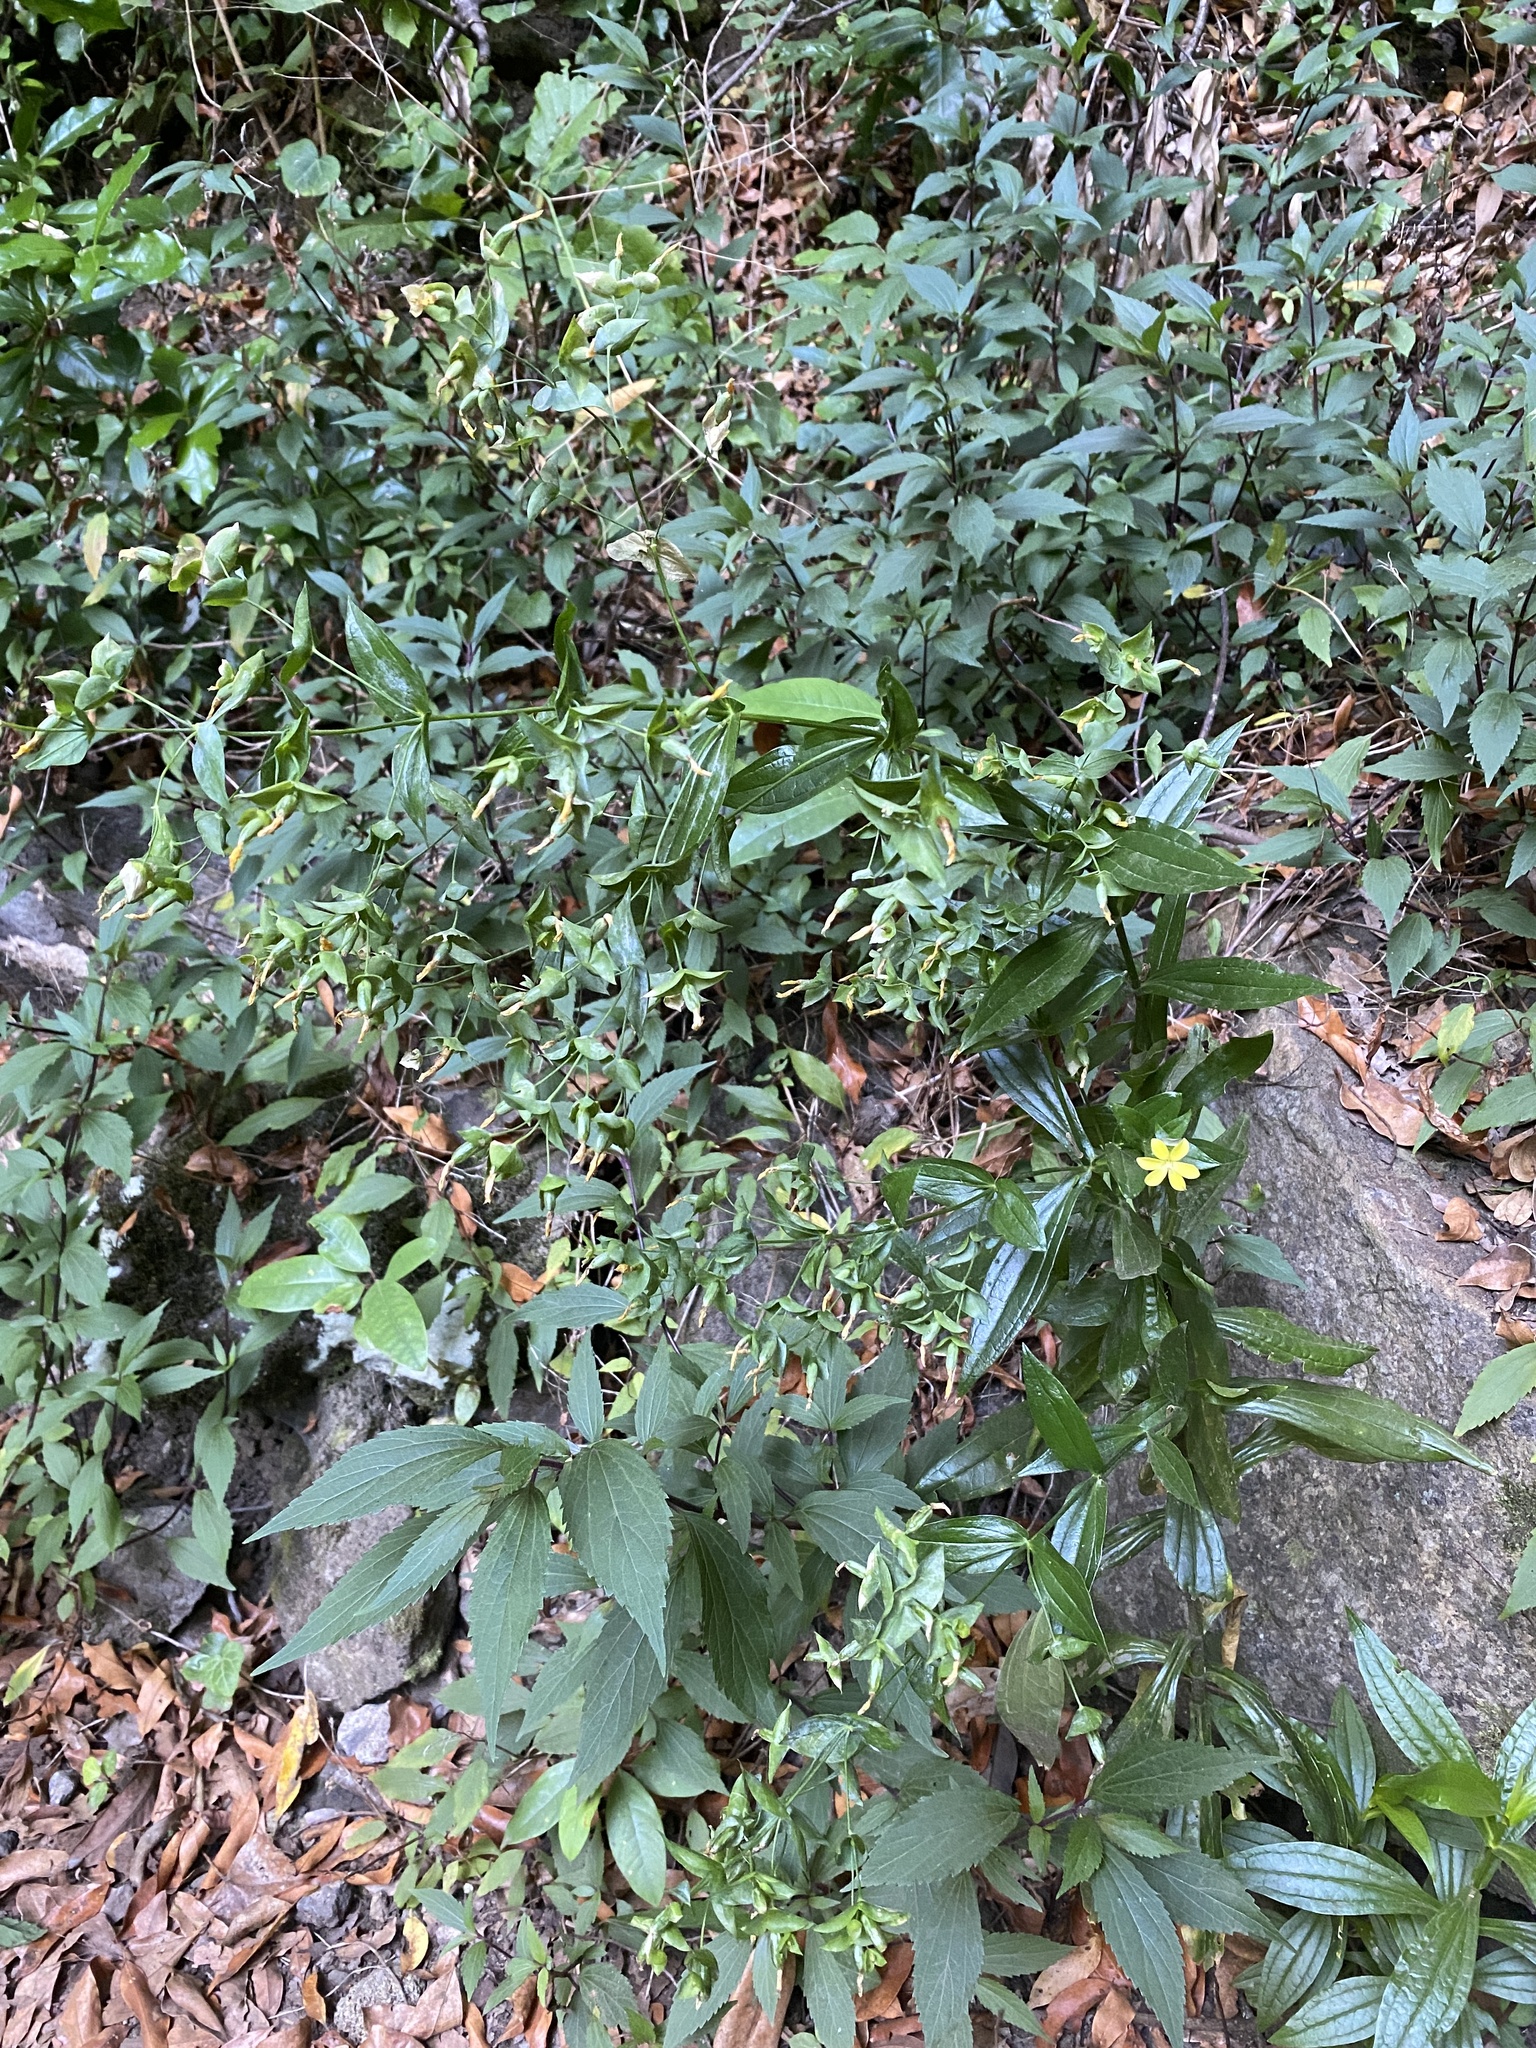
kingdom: Plantae
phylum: Tracheophyta
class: Magnoliopsida
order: Gentianales
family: Gentianaceae
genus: Ixanthus
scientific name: Ixanthus viscosus
